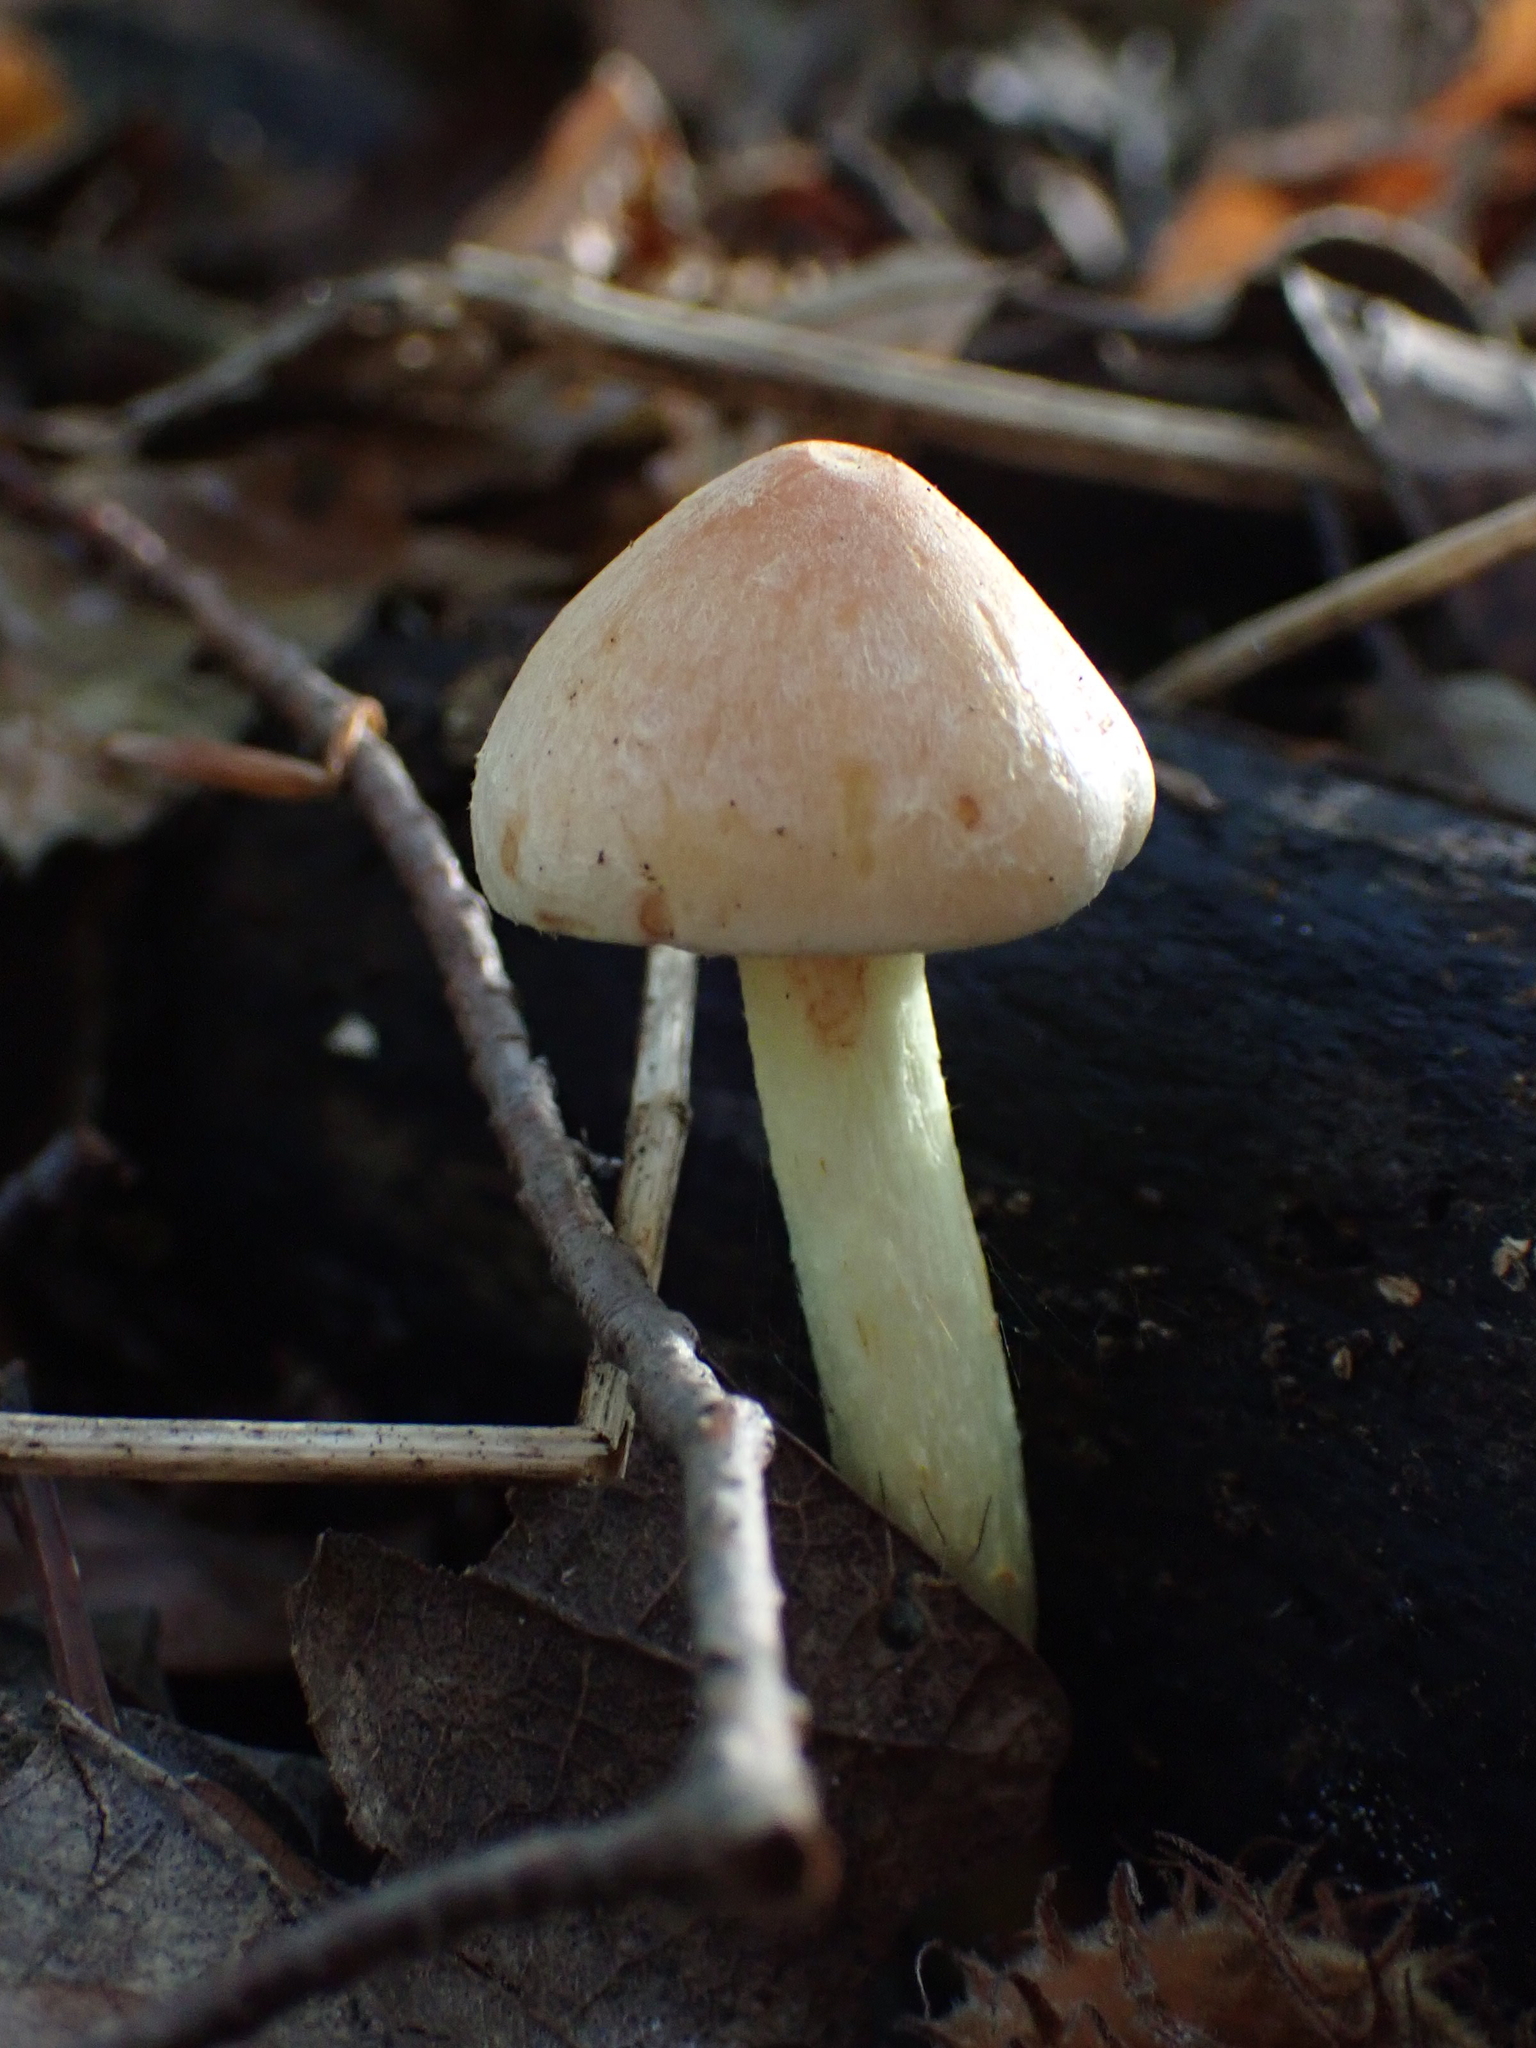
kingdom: Fungi
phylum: Basidiomycota
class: Agaricomycetes
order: Agaricales
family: Strophariaceae
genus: Hypholoma
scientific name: Hypholoma fasciculare
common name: Sulphur tuft
